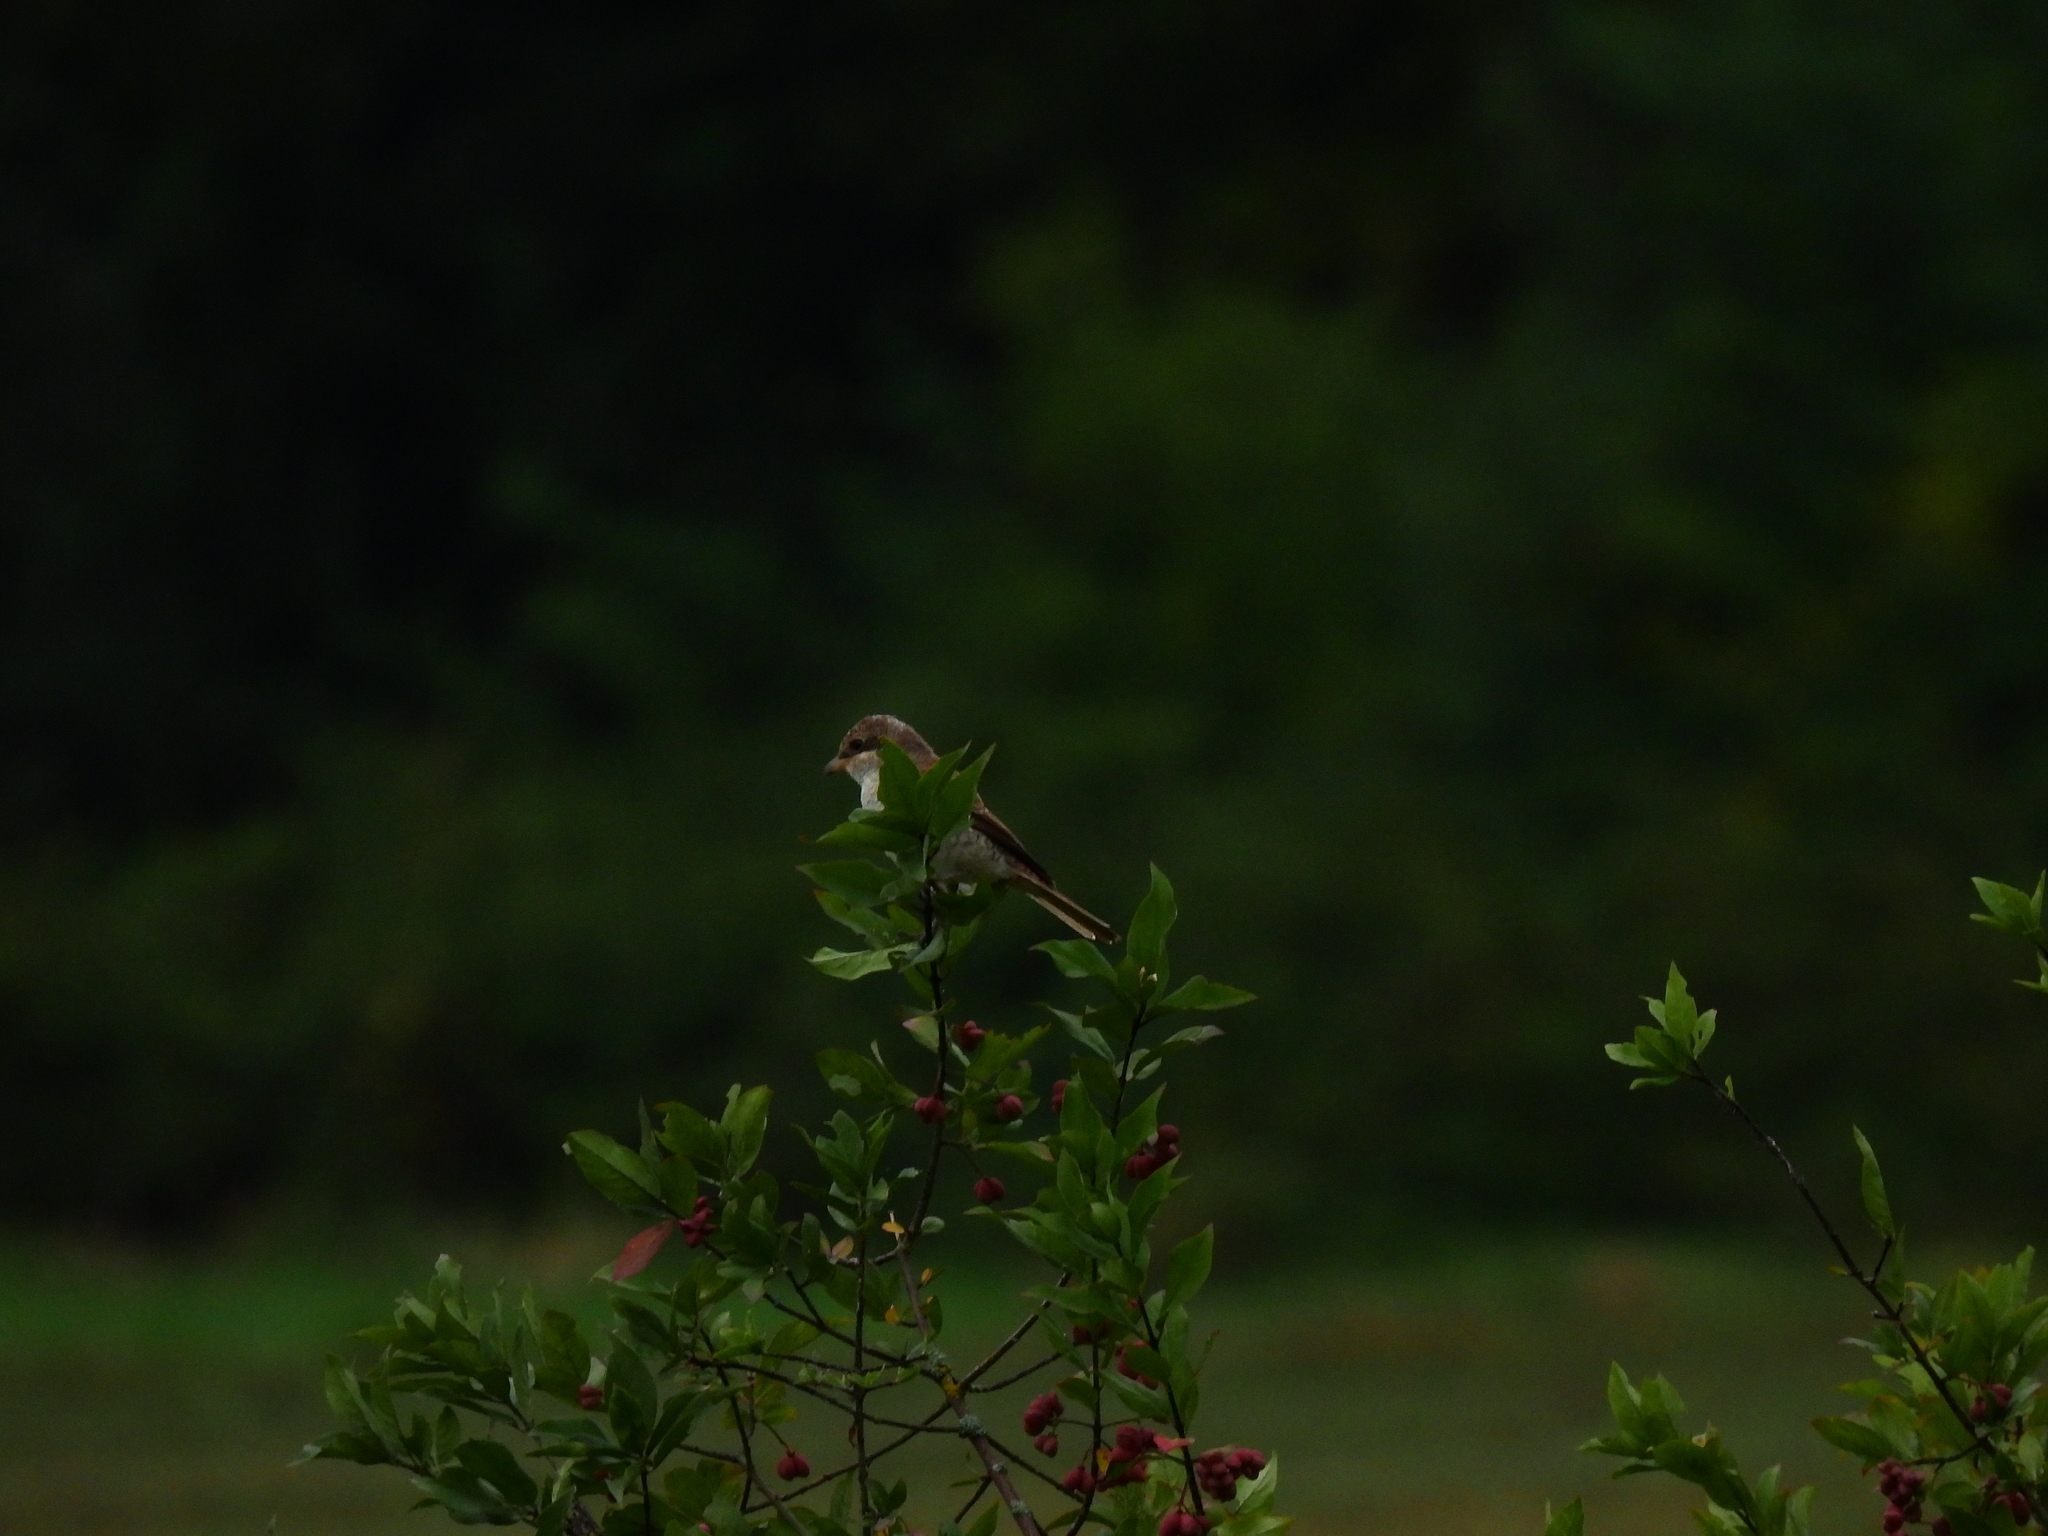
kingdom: Animalia
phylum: Chordata
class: Aves
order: Passeriformes
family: Laniidae
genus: Lanius
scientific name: Lanius collurio
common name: Red-backed shrike
